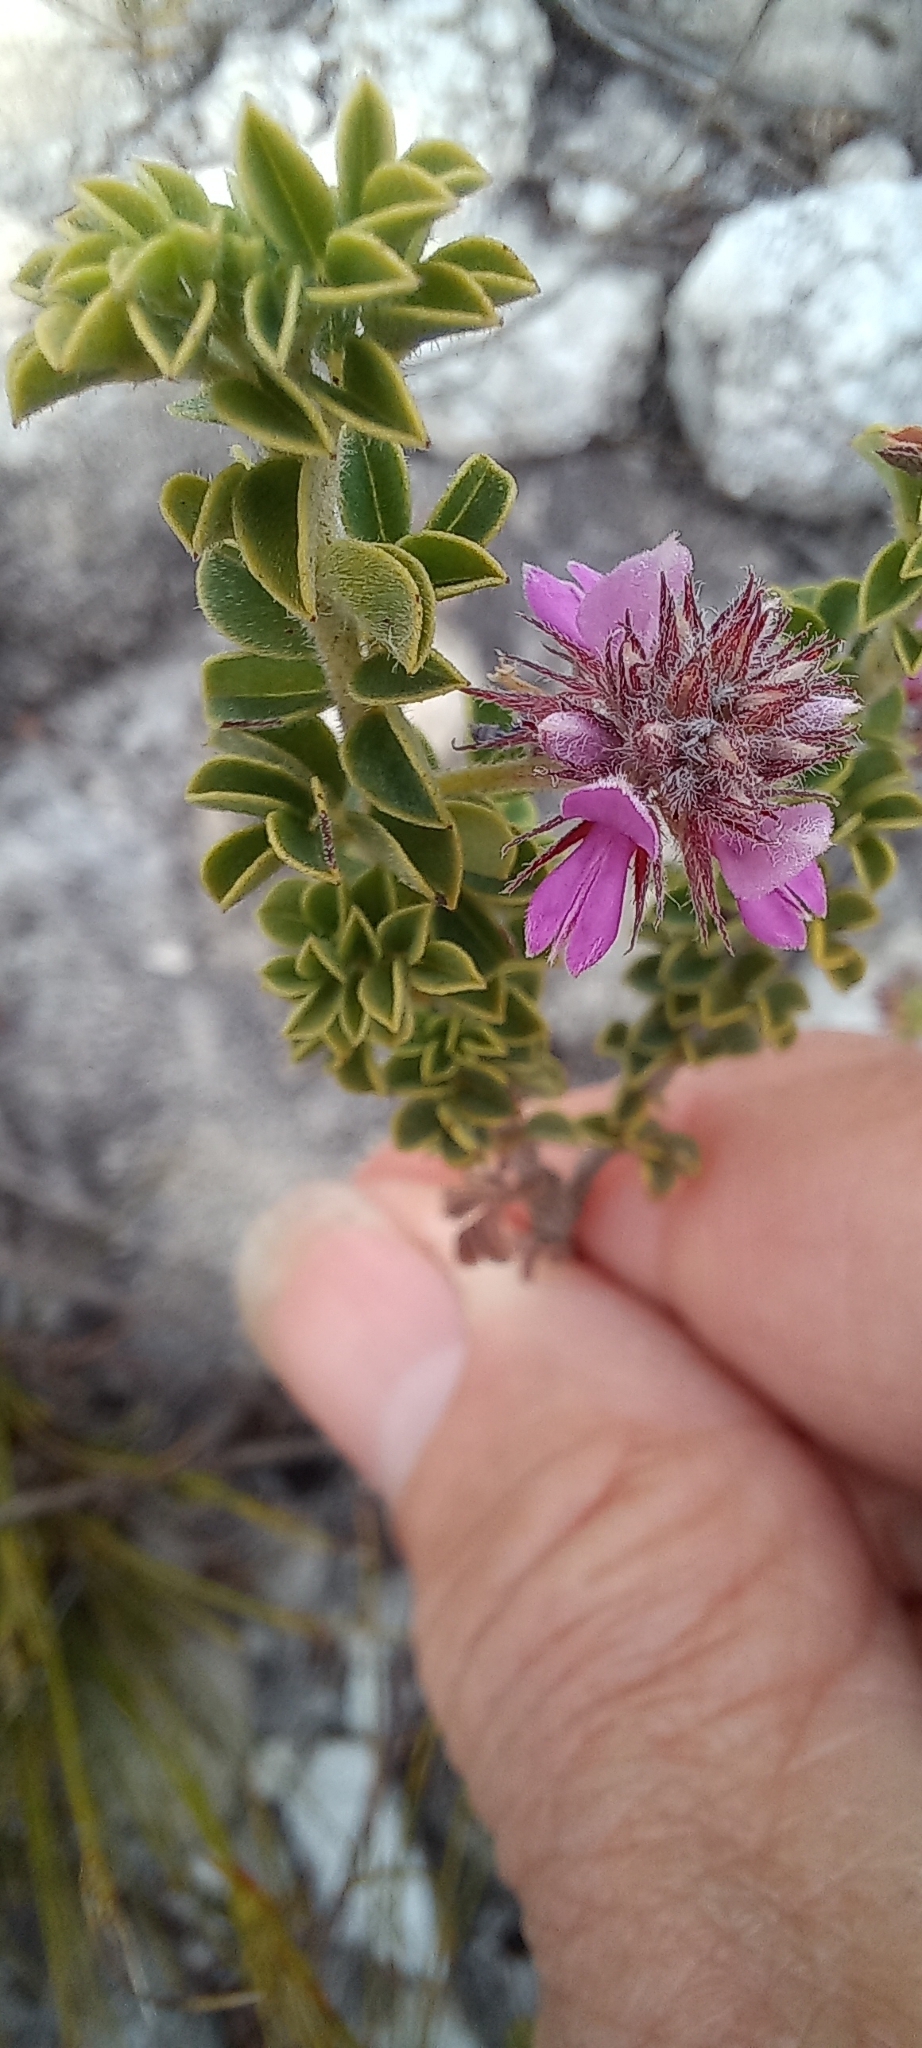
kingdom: Plantae
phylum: Tracheophyta
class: Magnoliopsida
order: Fabales
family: Fabaceae
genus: Indigofera
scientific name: Indigofera alopecuroides
